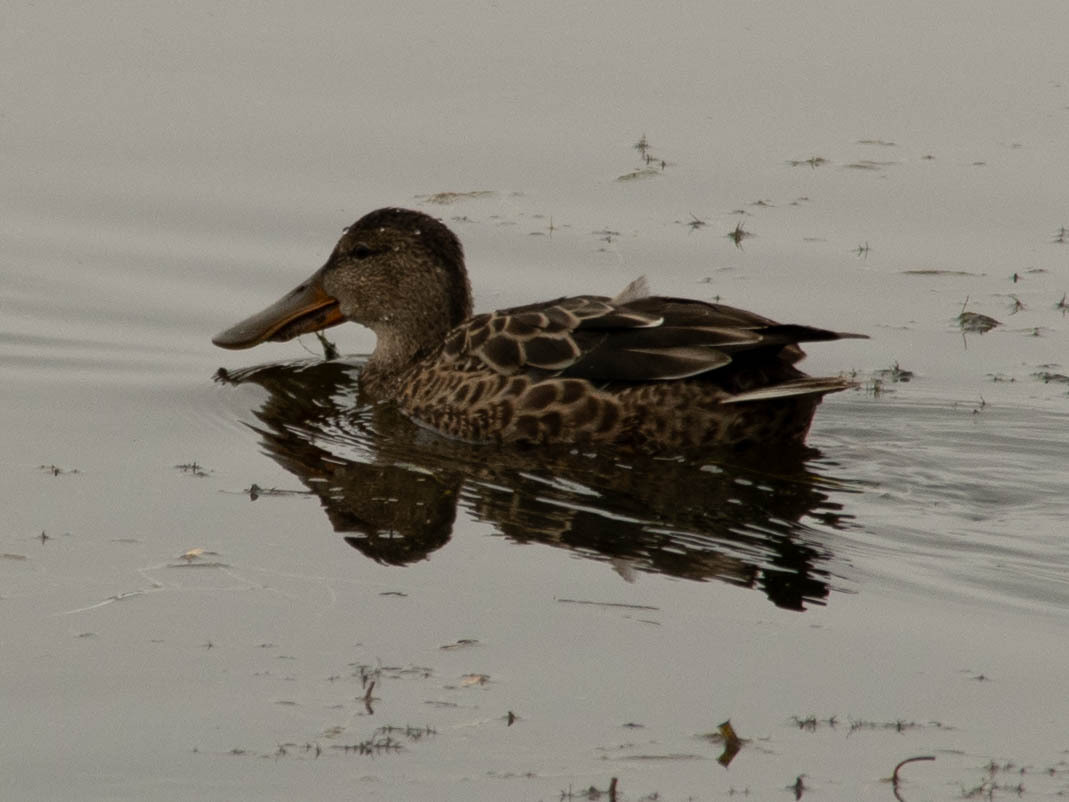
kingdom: Animalia
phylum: Chordata
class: Aves
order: Anseriformes
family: Anatidae
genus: Spatula
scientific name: Spatula clypeata
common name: Northern shoveler
